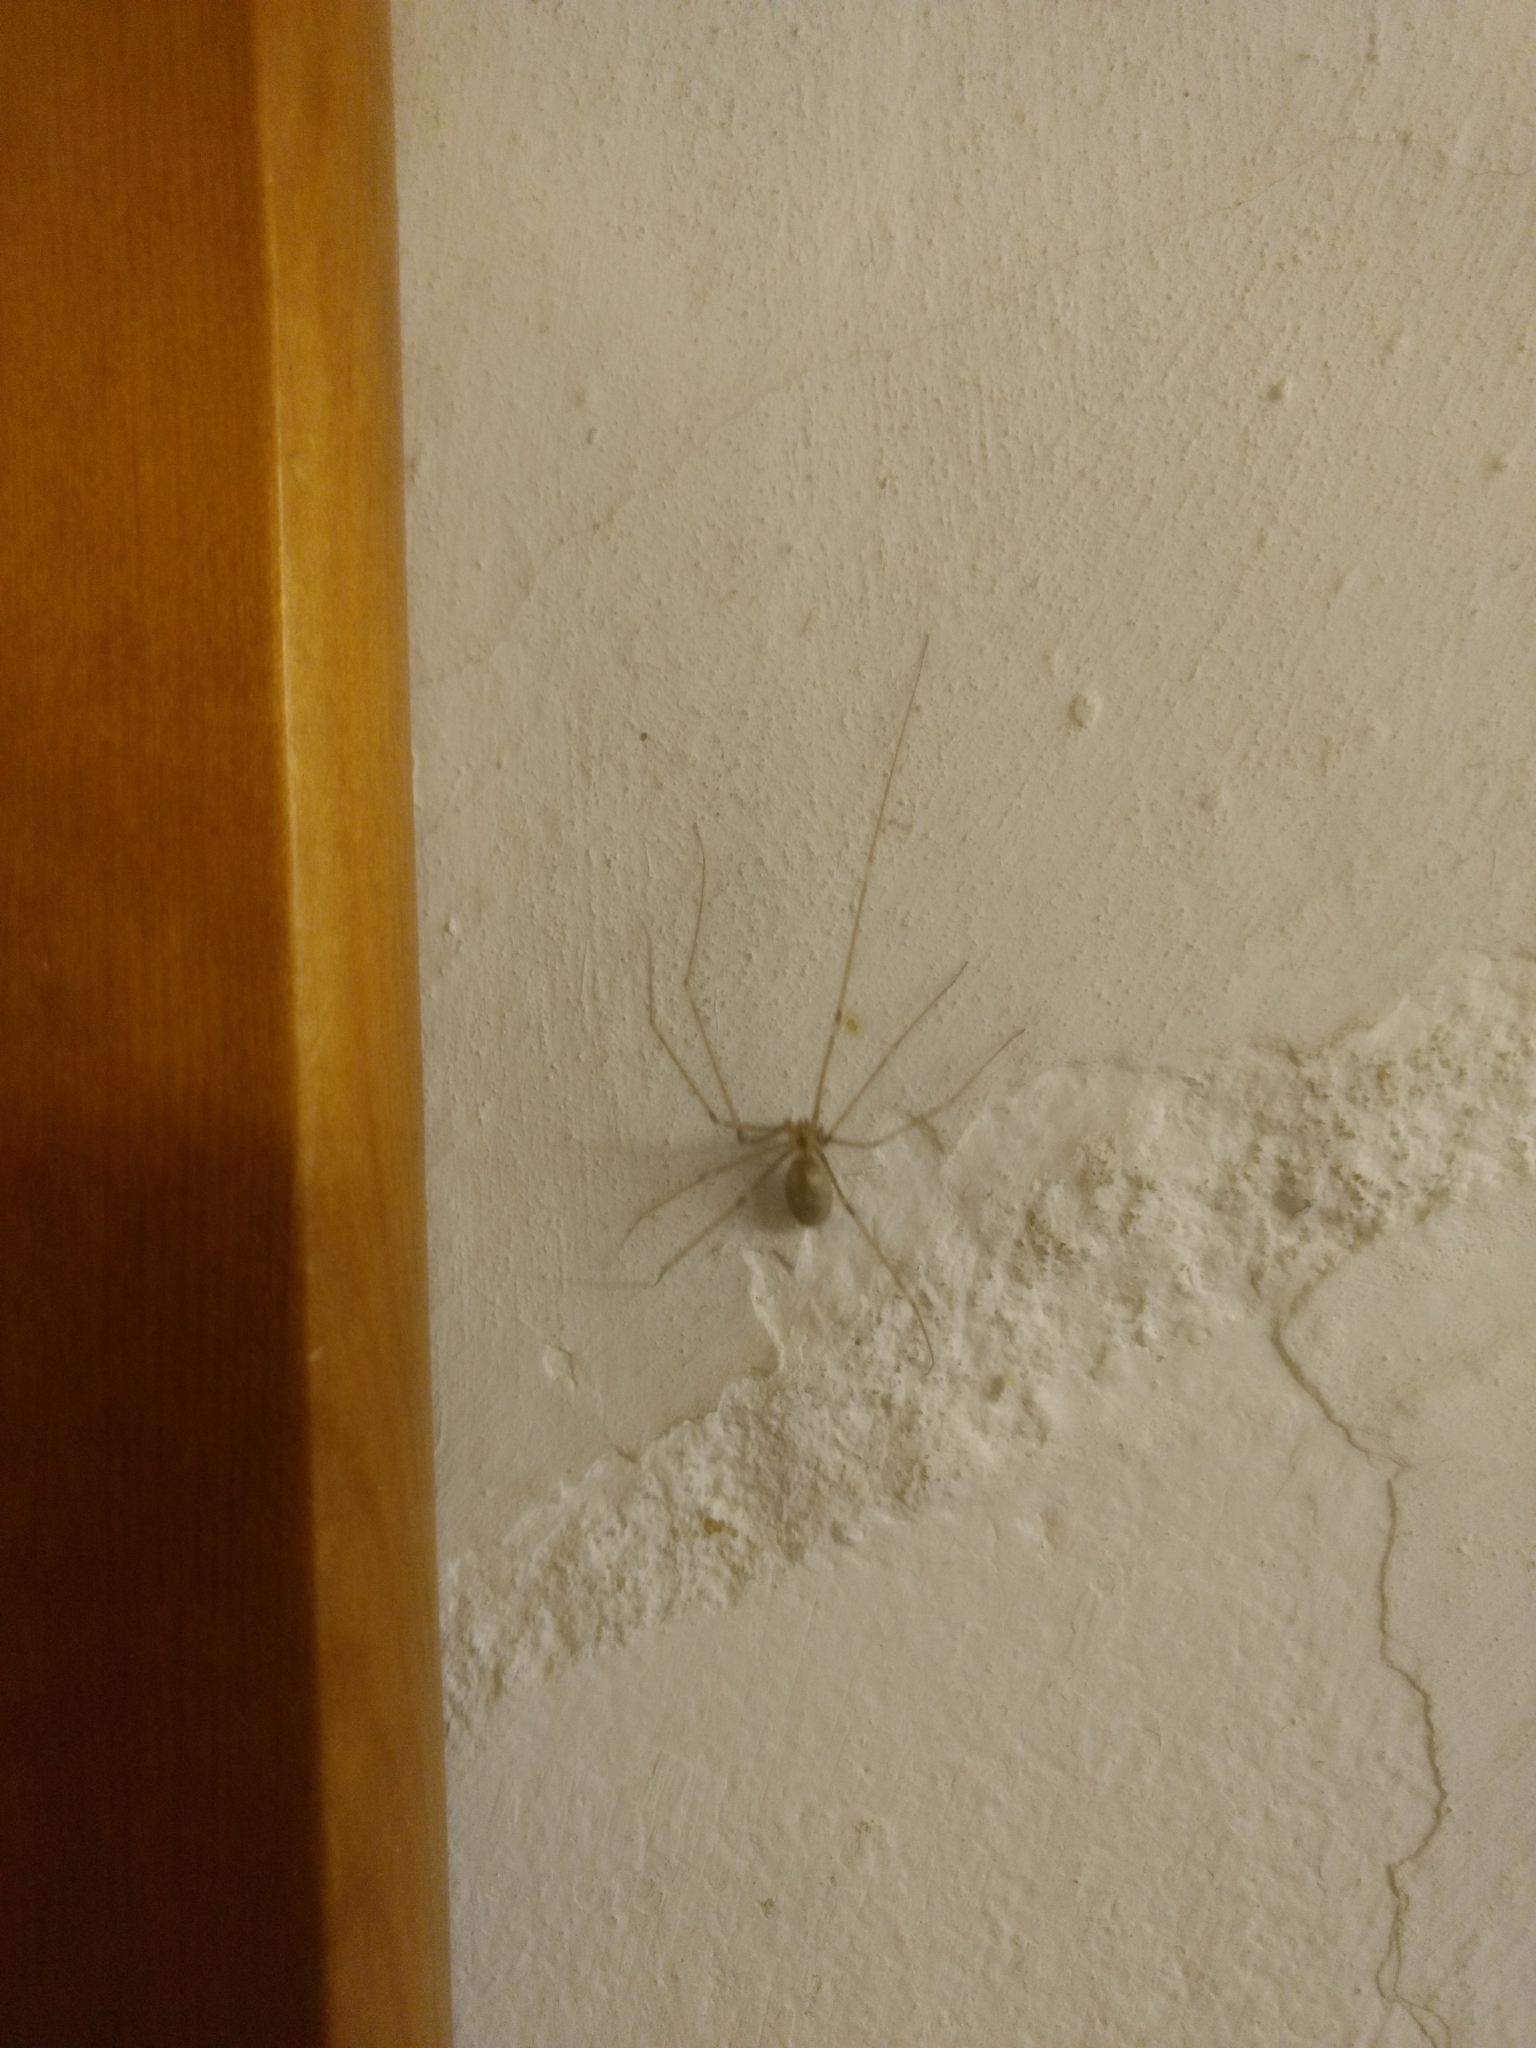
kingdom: Animalia
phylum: Arthropoda
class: Arachnida
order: Araneae
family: Pholcidae
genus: Pholcus
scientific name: Pholcus phalangioides
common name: Longbodied cellar spider
